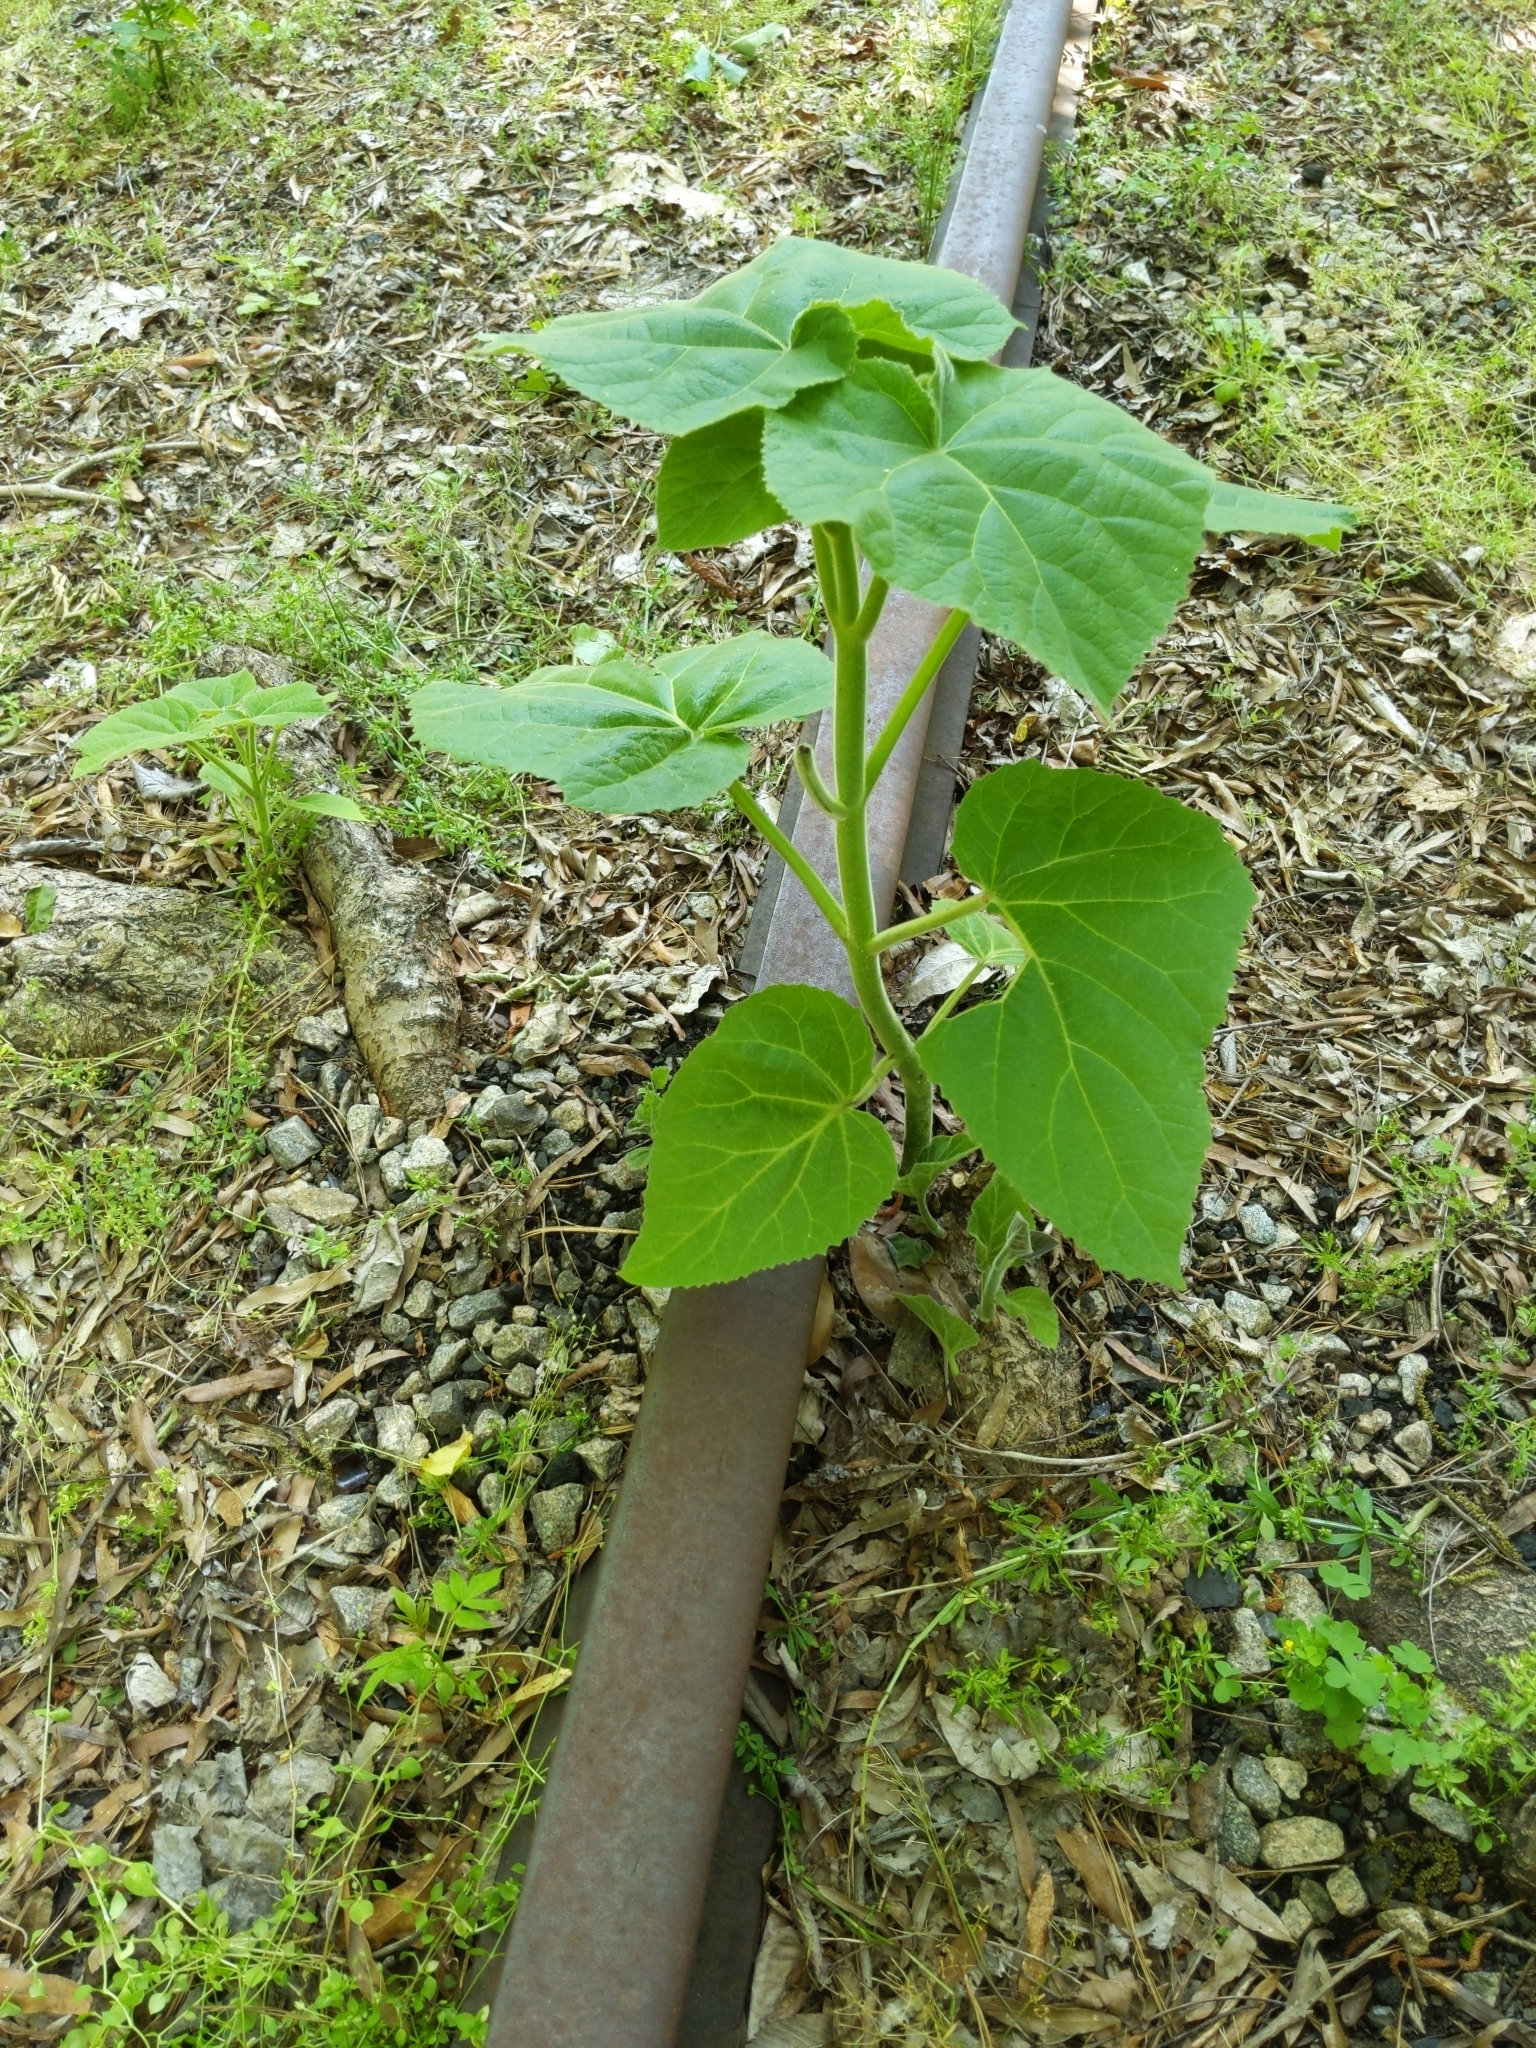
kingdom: Plantae
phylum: Tracheophyta
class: Magnoliopsida
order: Lamiales
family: Paulowniaceae
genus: Paulownia
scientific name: Paulownia tomentosa
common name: Foxglove-tree
